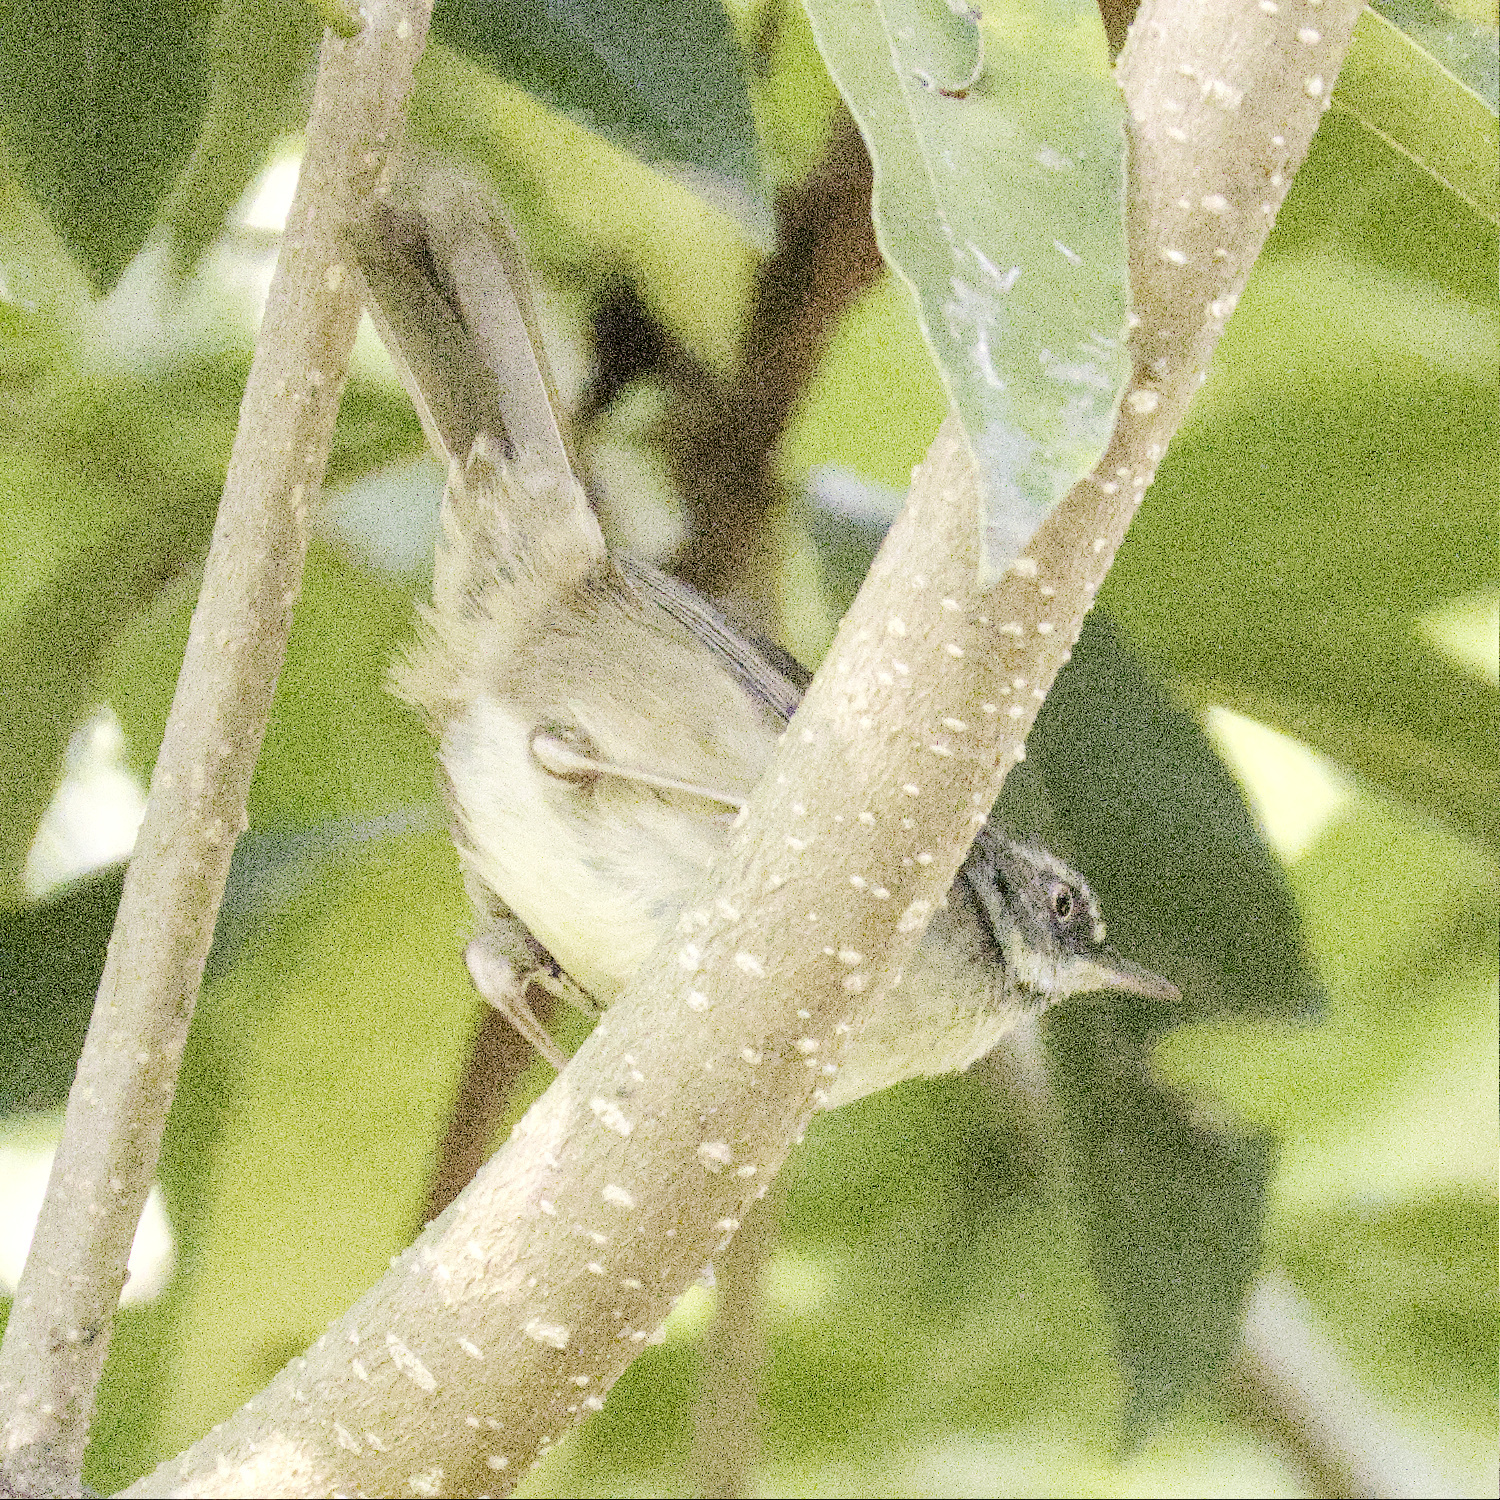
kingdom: Animalia
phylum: Chordata
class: Aves
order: Passeriformes
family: Acanthizidae
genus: Sericornis
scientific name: Sericornis frontalis
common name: White-browed scrubwren
